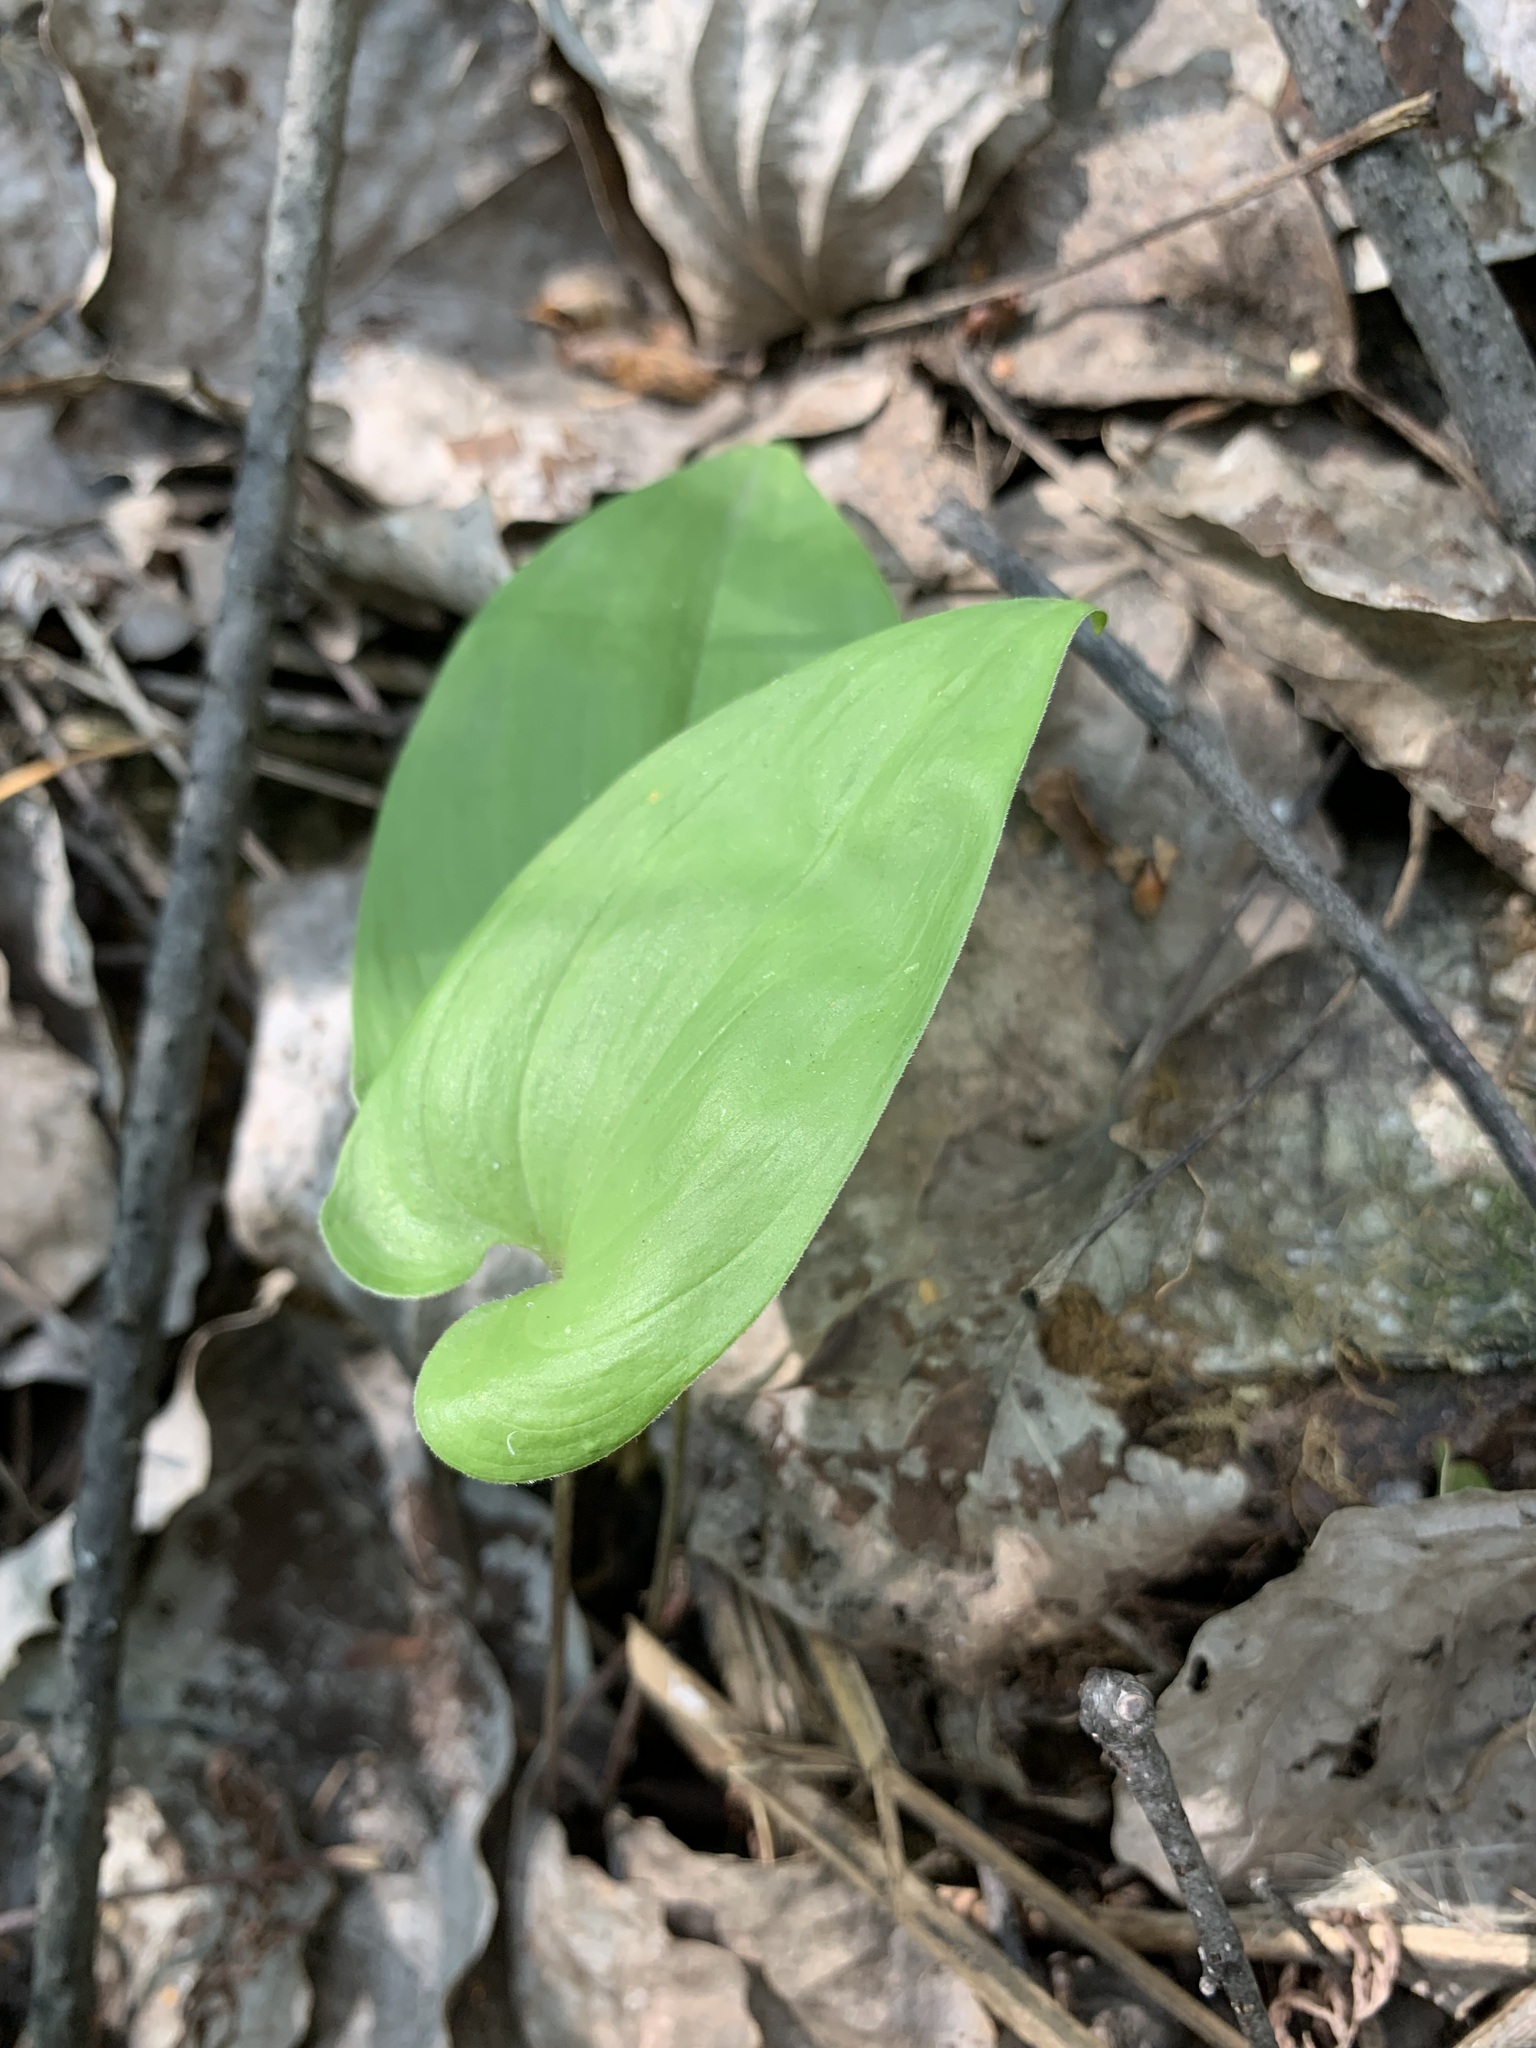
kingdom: Plantae
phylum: Tracheophyta
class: Liliopsida
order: Asparagales
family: Asparagaceae
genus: Maianthemum
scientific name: Maianthemum bifolium
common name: May lily
